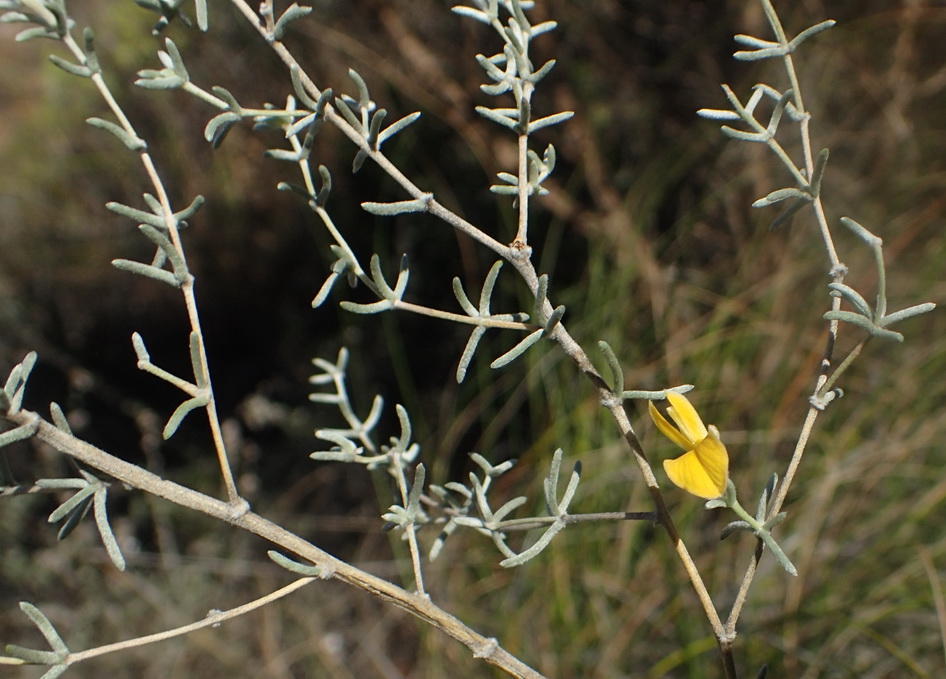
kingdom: Plantae
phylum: Tracheophyta
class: Magnoliopsida
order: Fabales
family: Fabaceae
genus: Aspalathus
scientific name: Aspalathus pedunculata
